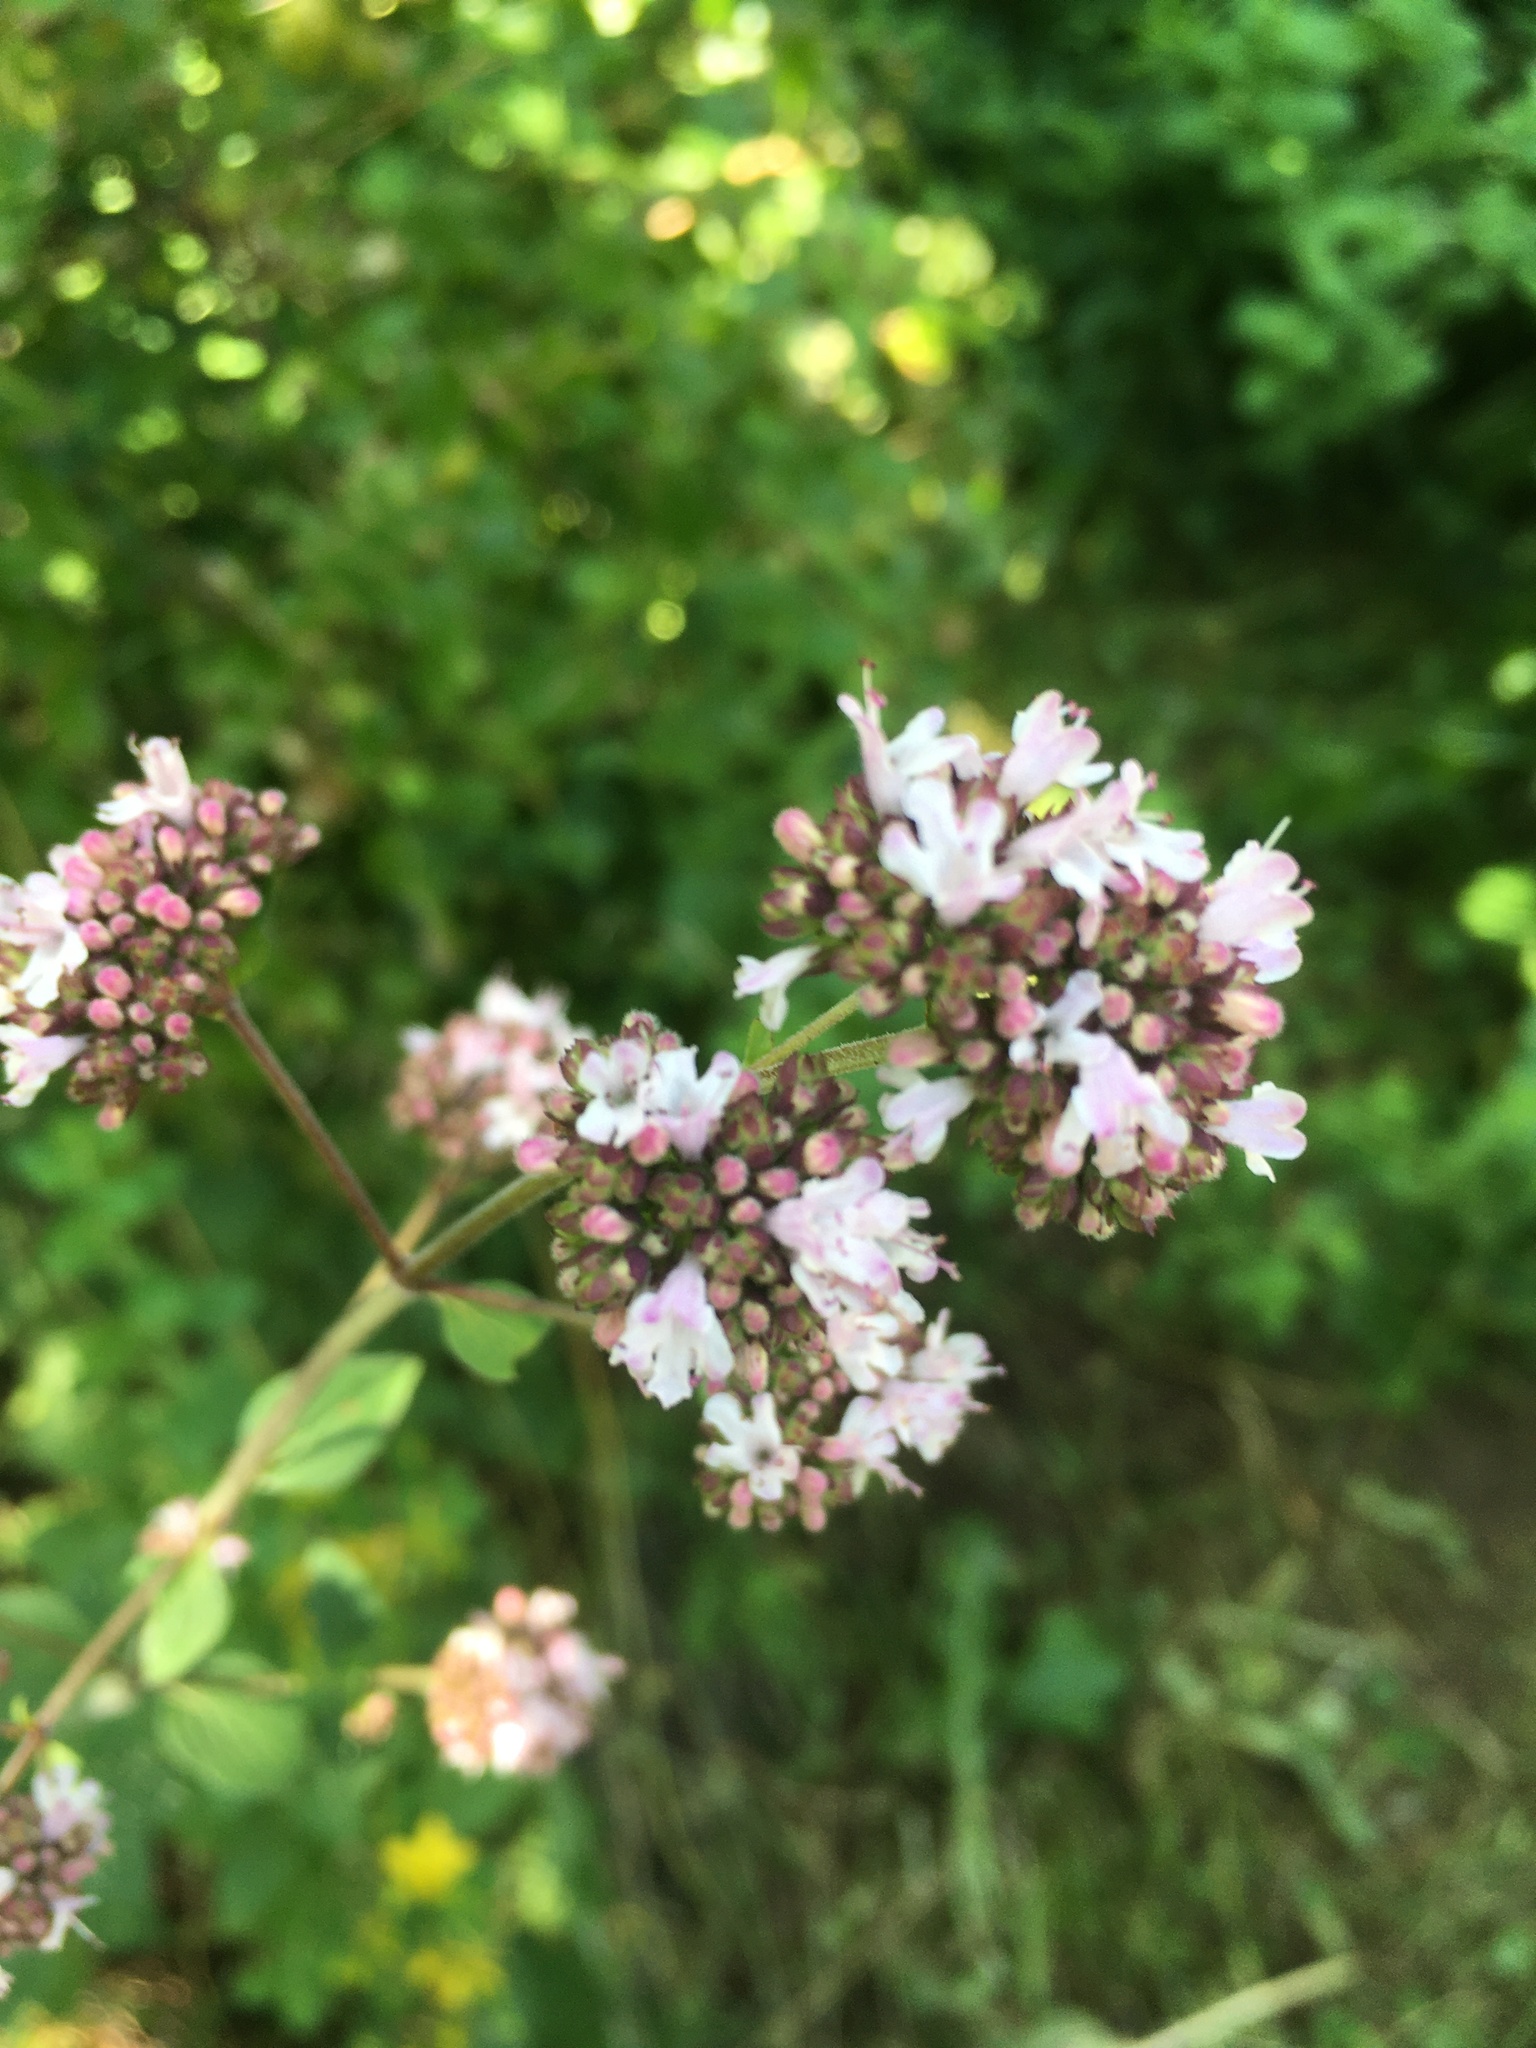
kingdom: Plantae
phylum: Tracheophyta
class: Magnoliopsida
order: Lamiales
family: Lamiaceae
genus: Origanum
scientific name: Origanum vulgare
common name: Wild marjoram
